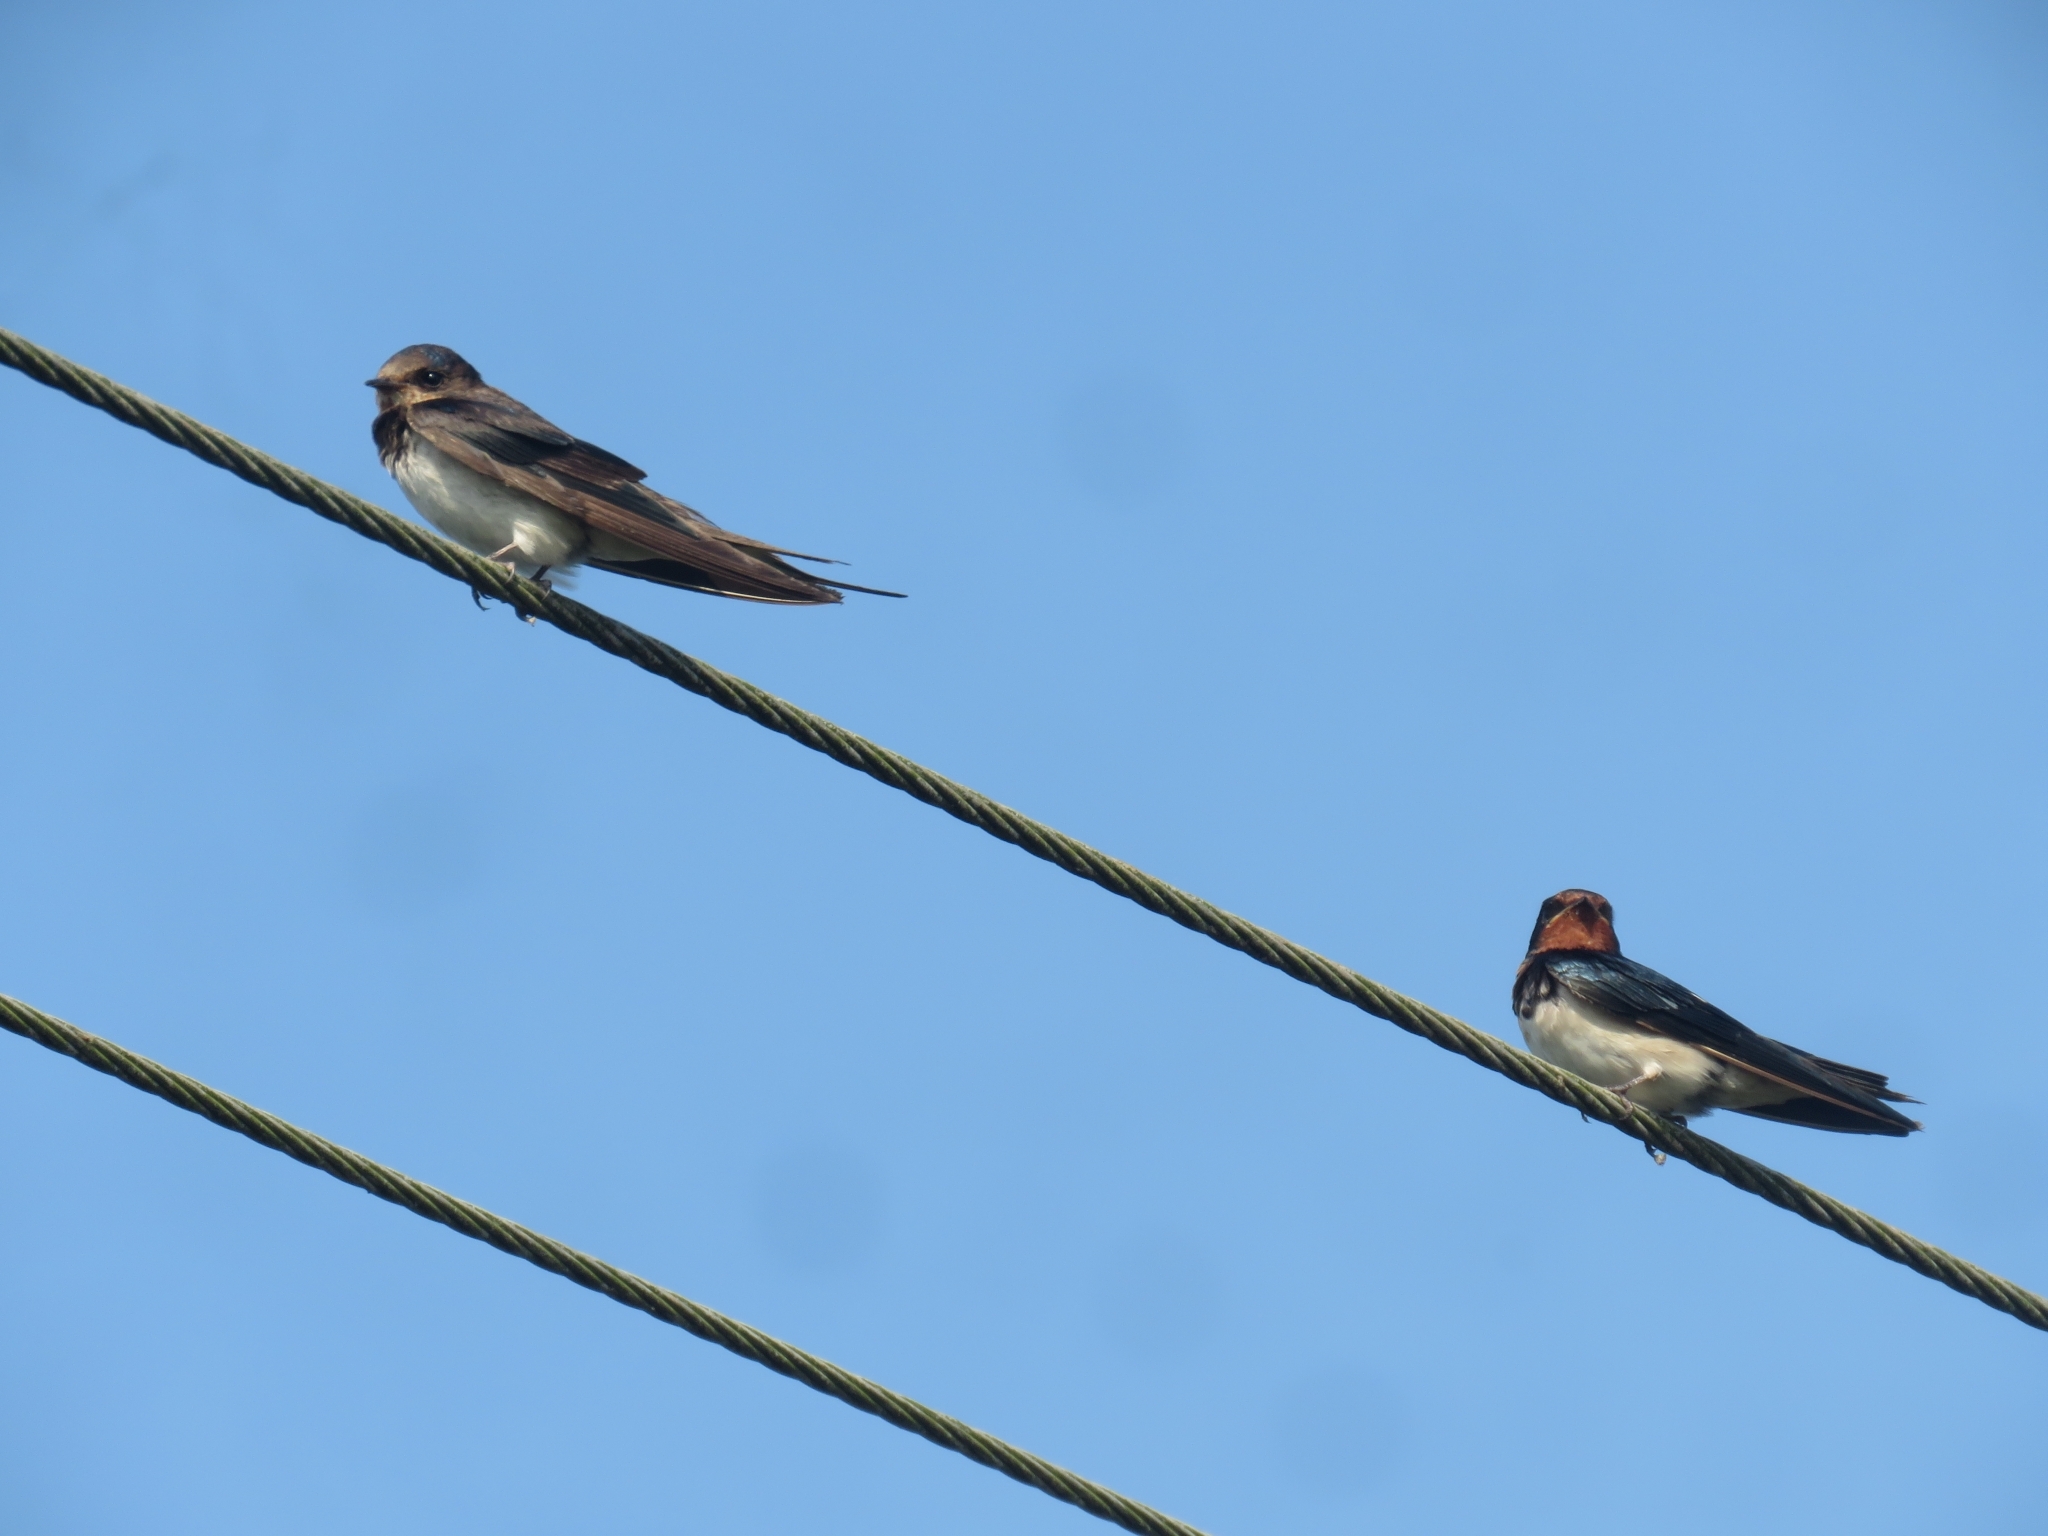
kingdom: Animalia
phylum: Chordata
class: Aves
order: Passeriformes
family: Hirundinidae
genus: Hirundo
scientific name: Hirundo rustica
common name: Barn swallow
